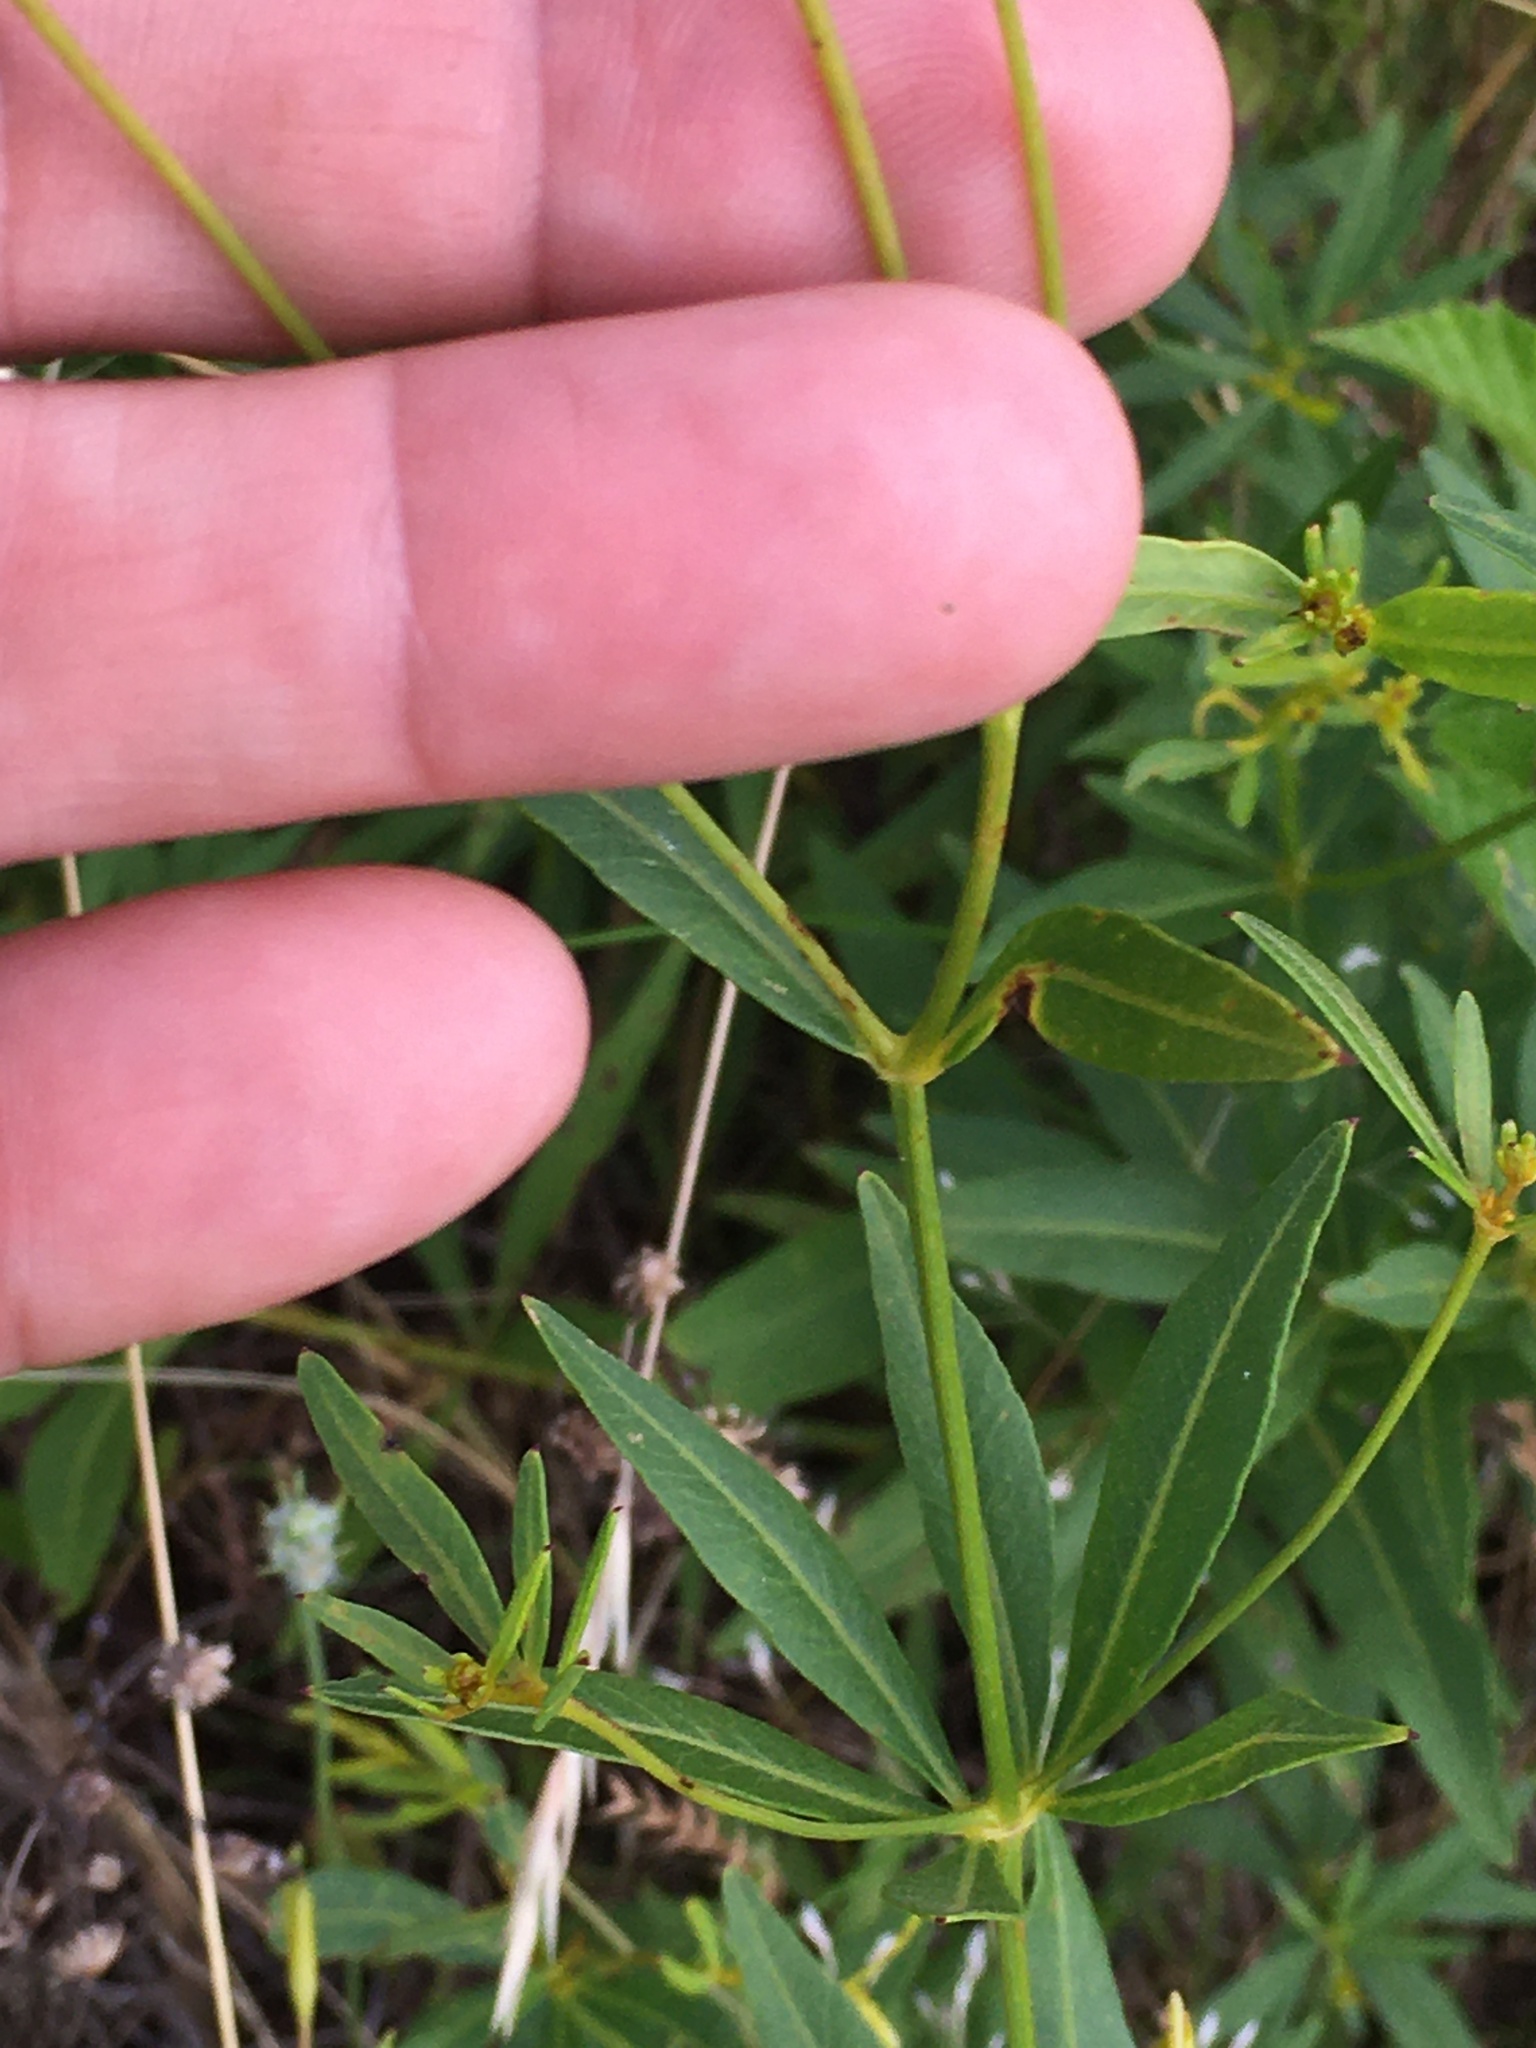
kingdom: Plantae
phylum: Tracheophyta
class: Magnoliopsida
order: Asterales
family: Asteraceae
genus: Coreopsis
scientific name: Coreopsis major
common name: Forest tickseed
